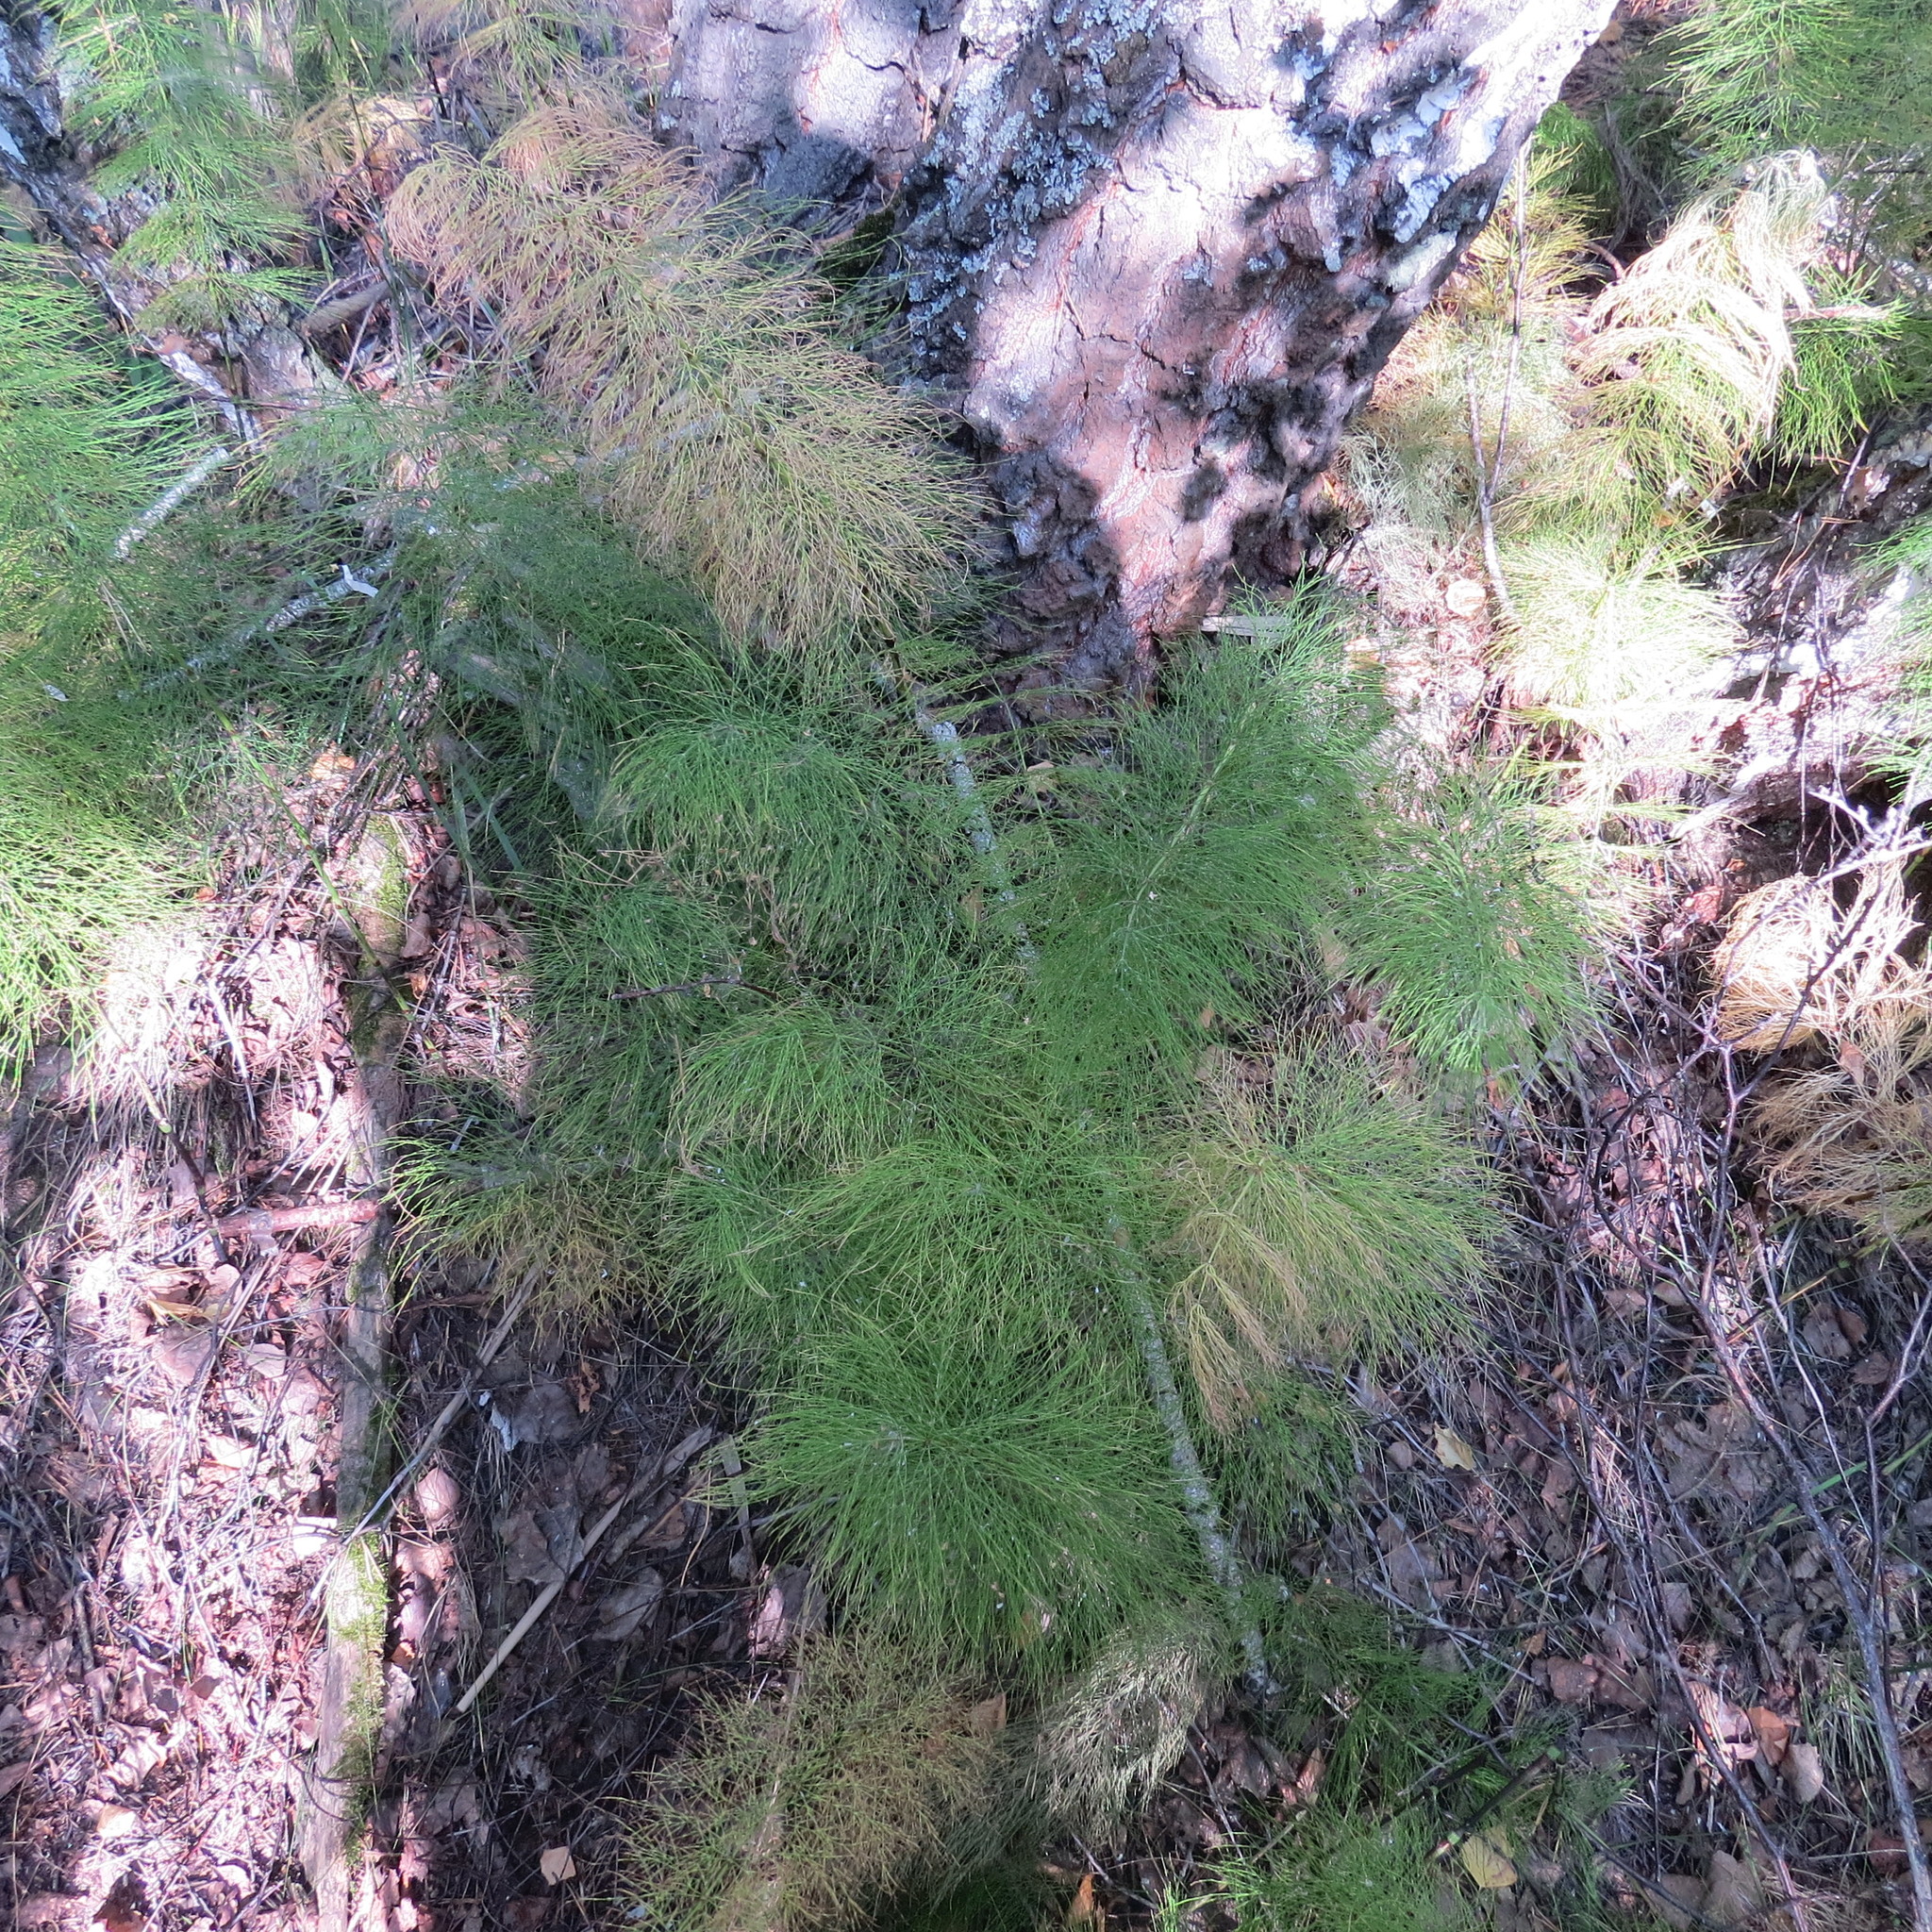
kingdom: Plantae
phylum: Tracheophyta
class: Polypodiopsida
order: Equisetales
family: Equisetaceae
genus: Equisetum
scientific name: Equisetum sylvaticum
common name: Wood horsetail
